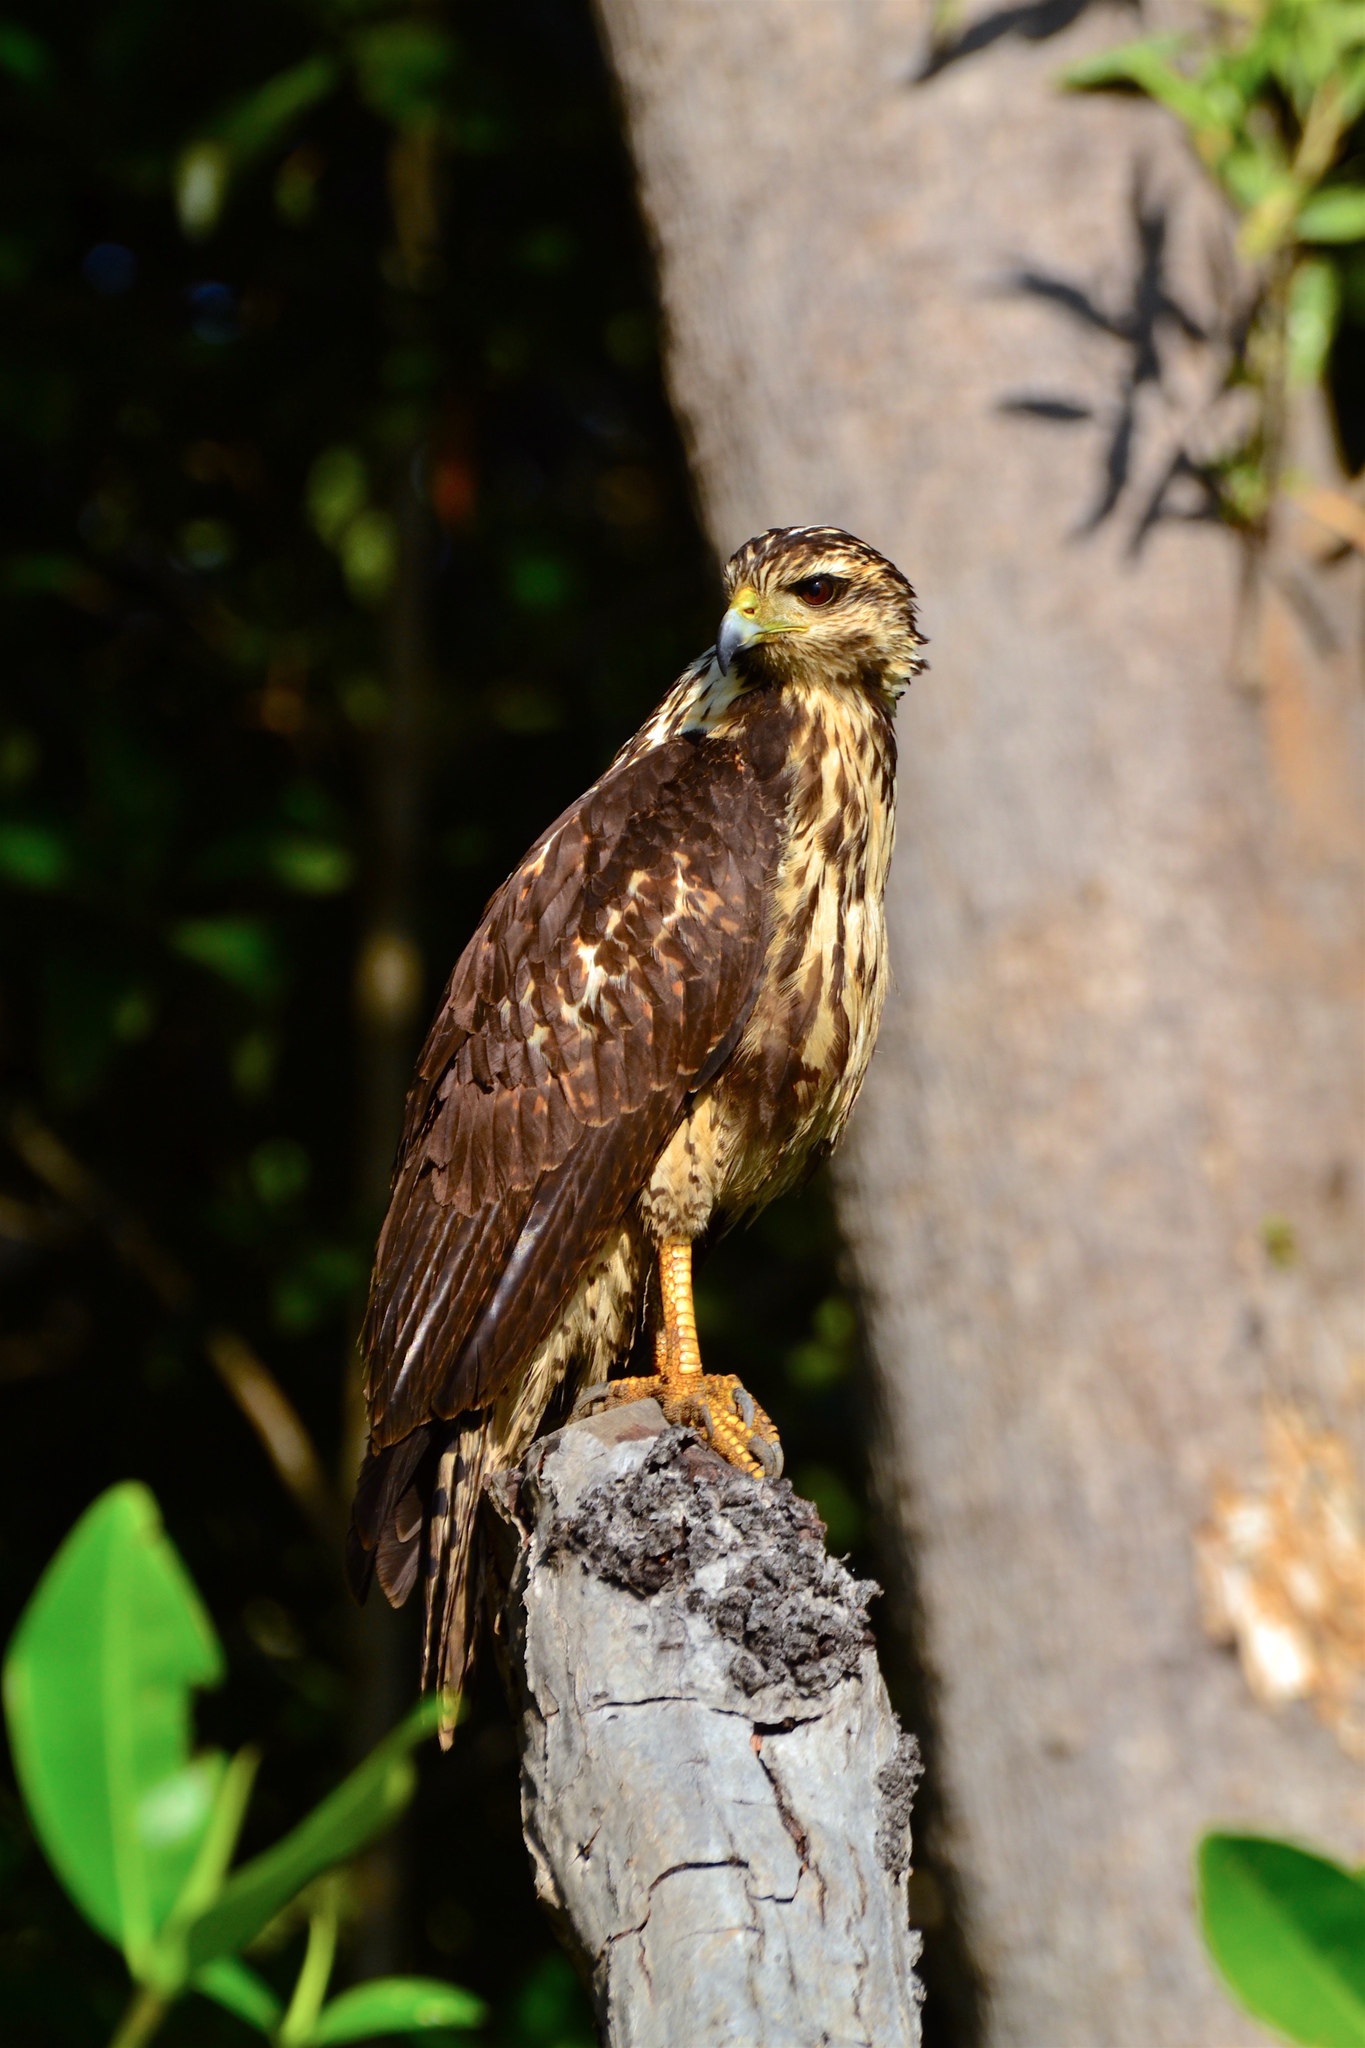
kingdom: Animalia
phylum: Chordata
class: Aves
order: Accipitriformes
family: Accipitridae
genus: Buteogallus
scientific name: Buteogallus anthracinus
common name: Common black hawk
